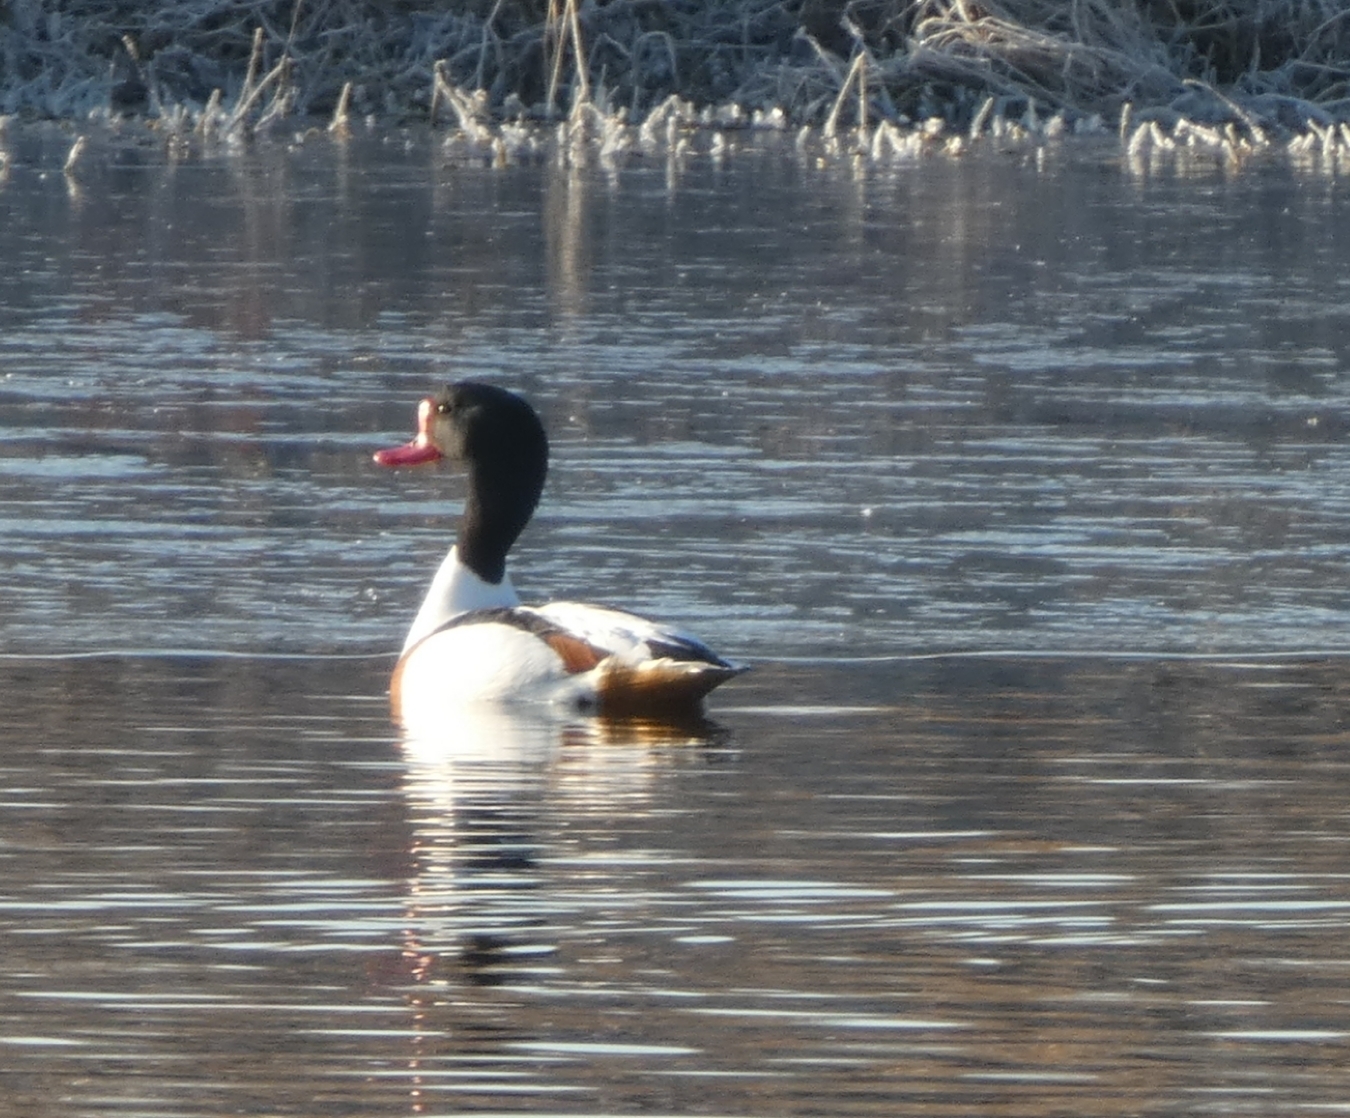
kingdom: Animalia
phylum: Chordata
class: Aves
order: Anseriformes
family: Anatidae
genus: Tadorna
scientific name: Tadorna tadorna
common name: Common shelduck
